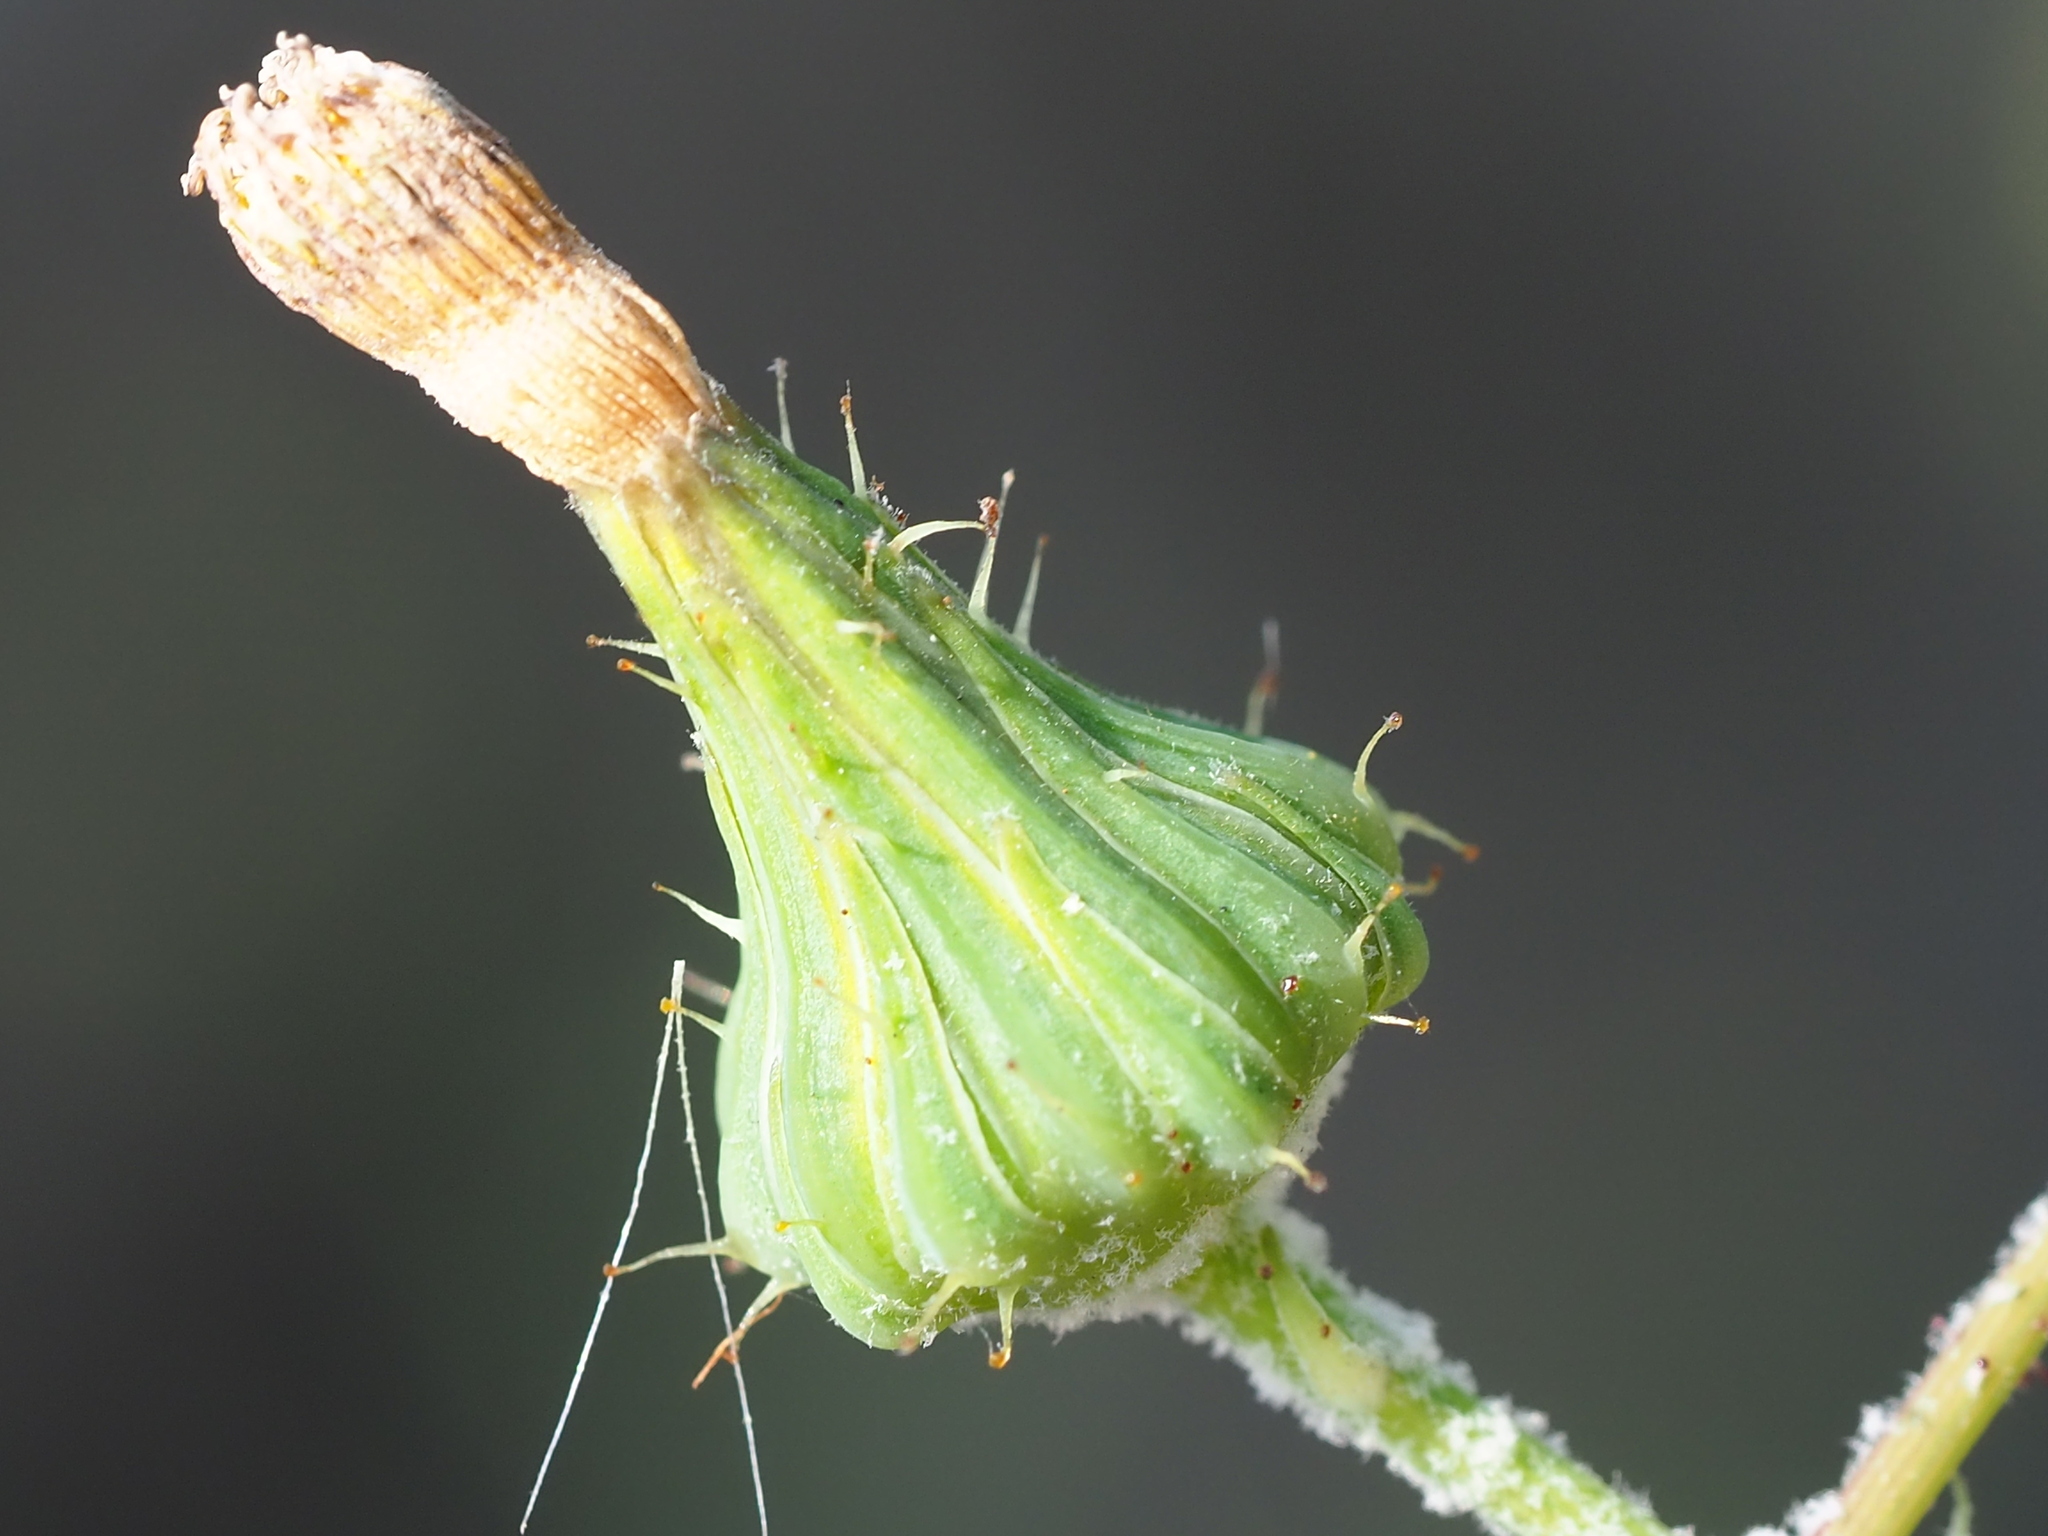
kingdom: Plantae
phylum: Tracheophyta
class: Magnoliopsida
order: Asterales
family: Asteraceae
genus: Sonchus
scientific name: Sonchus oleraceus
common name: Common sowthistle
